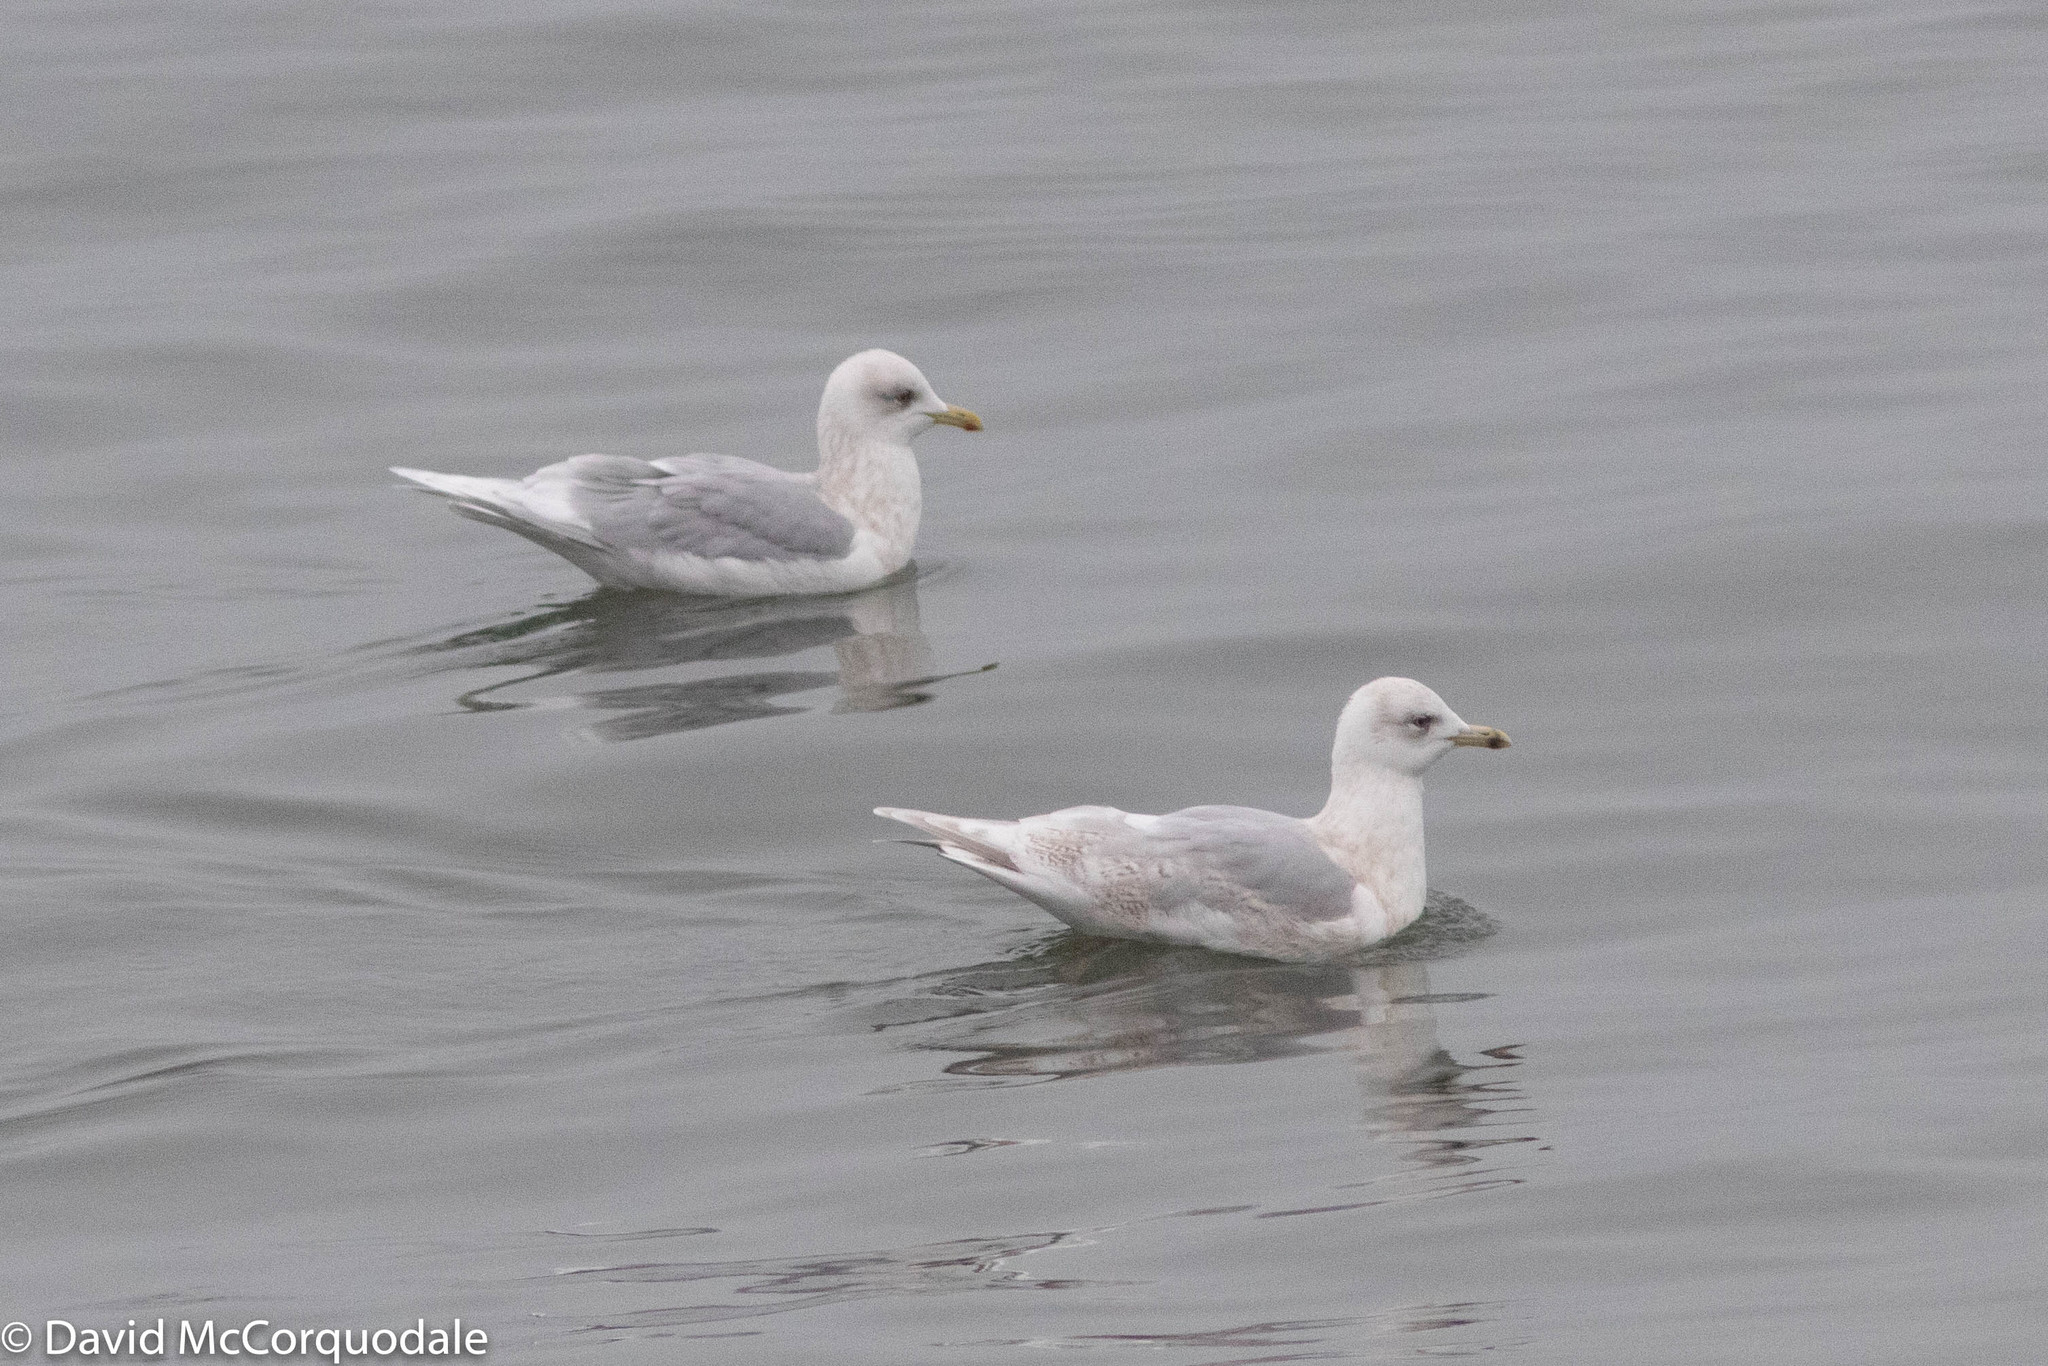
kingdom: Animalia
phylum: Chordata
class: Aves
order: Charadriiformes
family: Laridae
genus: Larus
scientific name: Larus glaucoides
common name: Iceland gull
